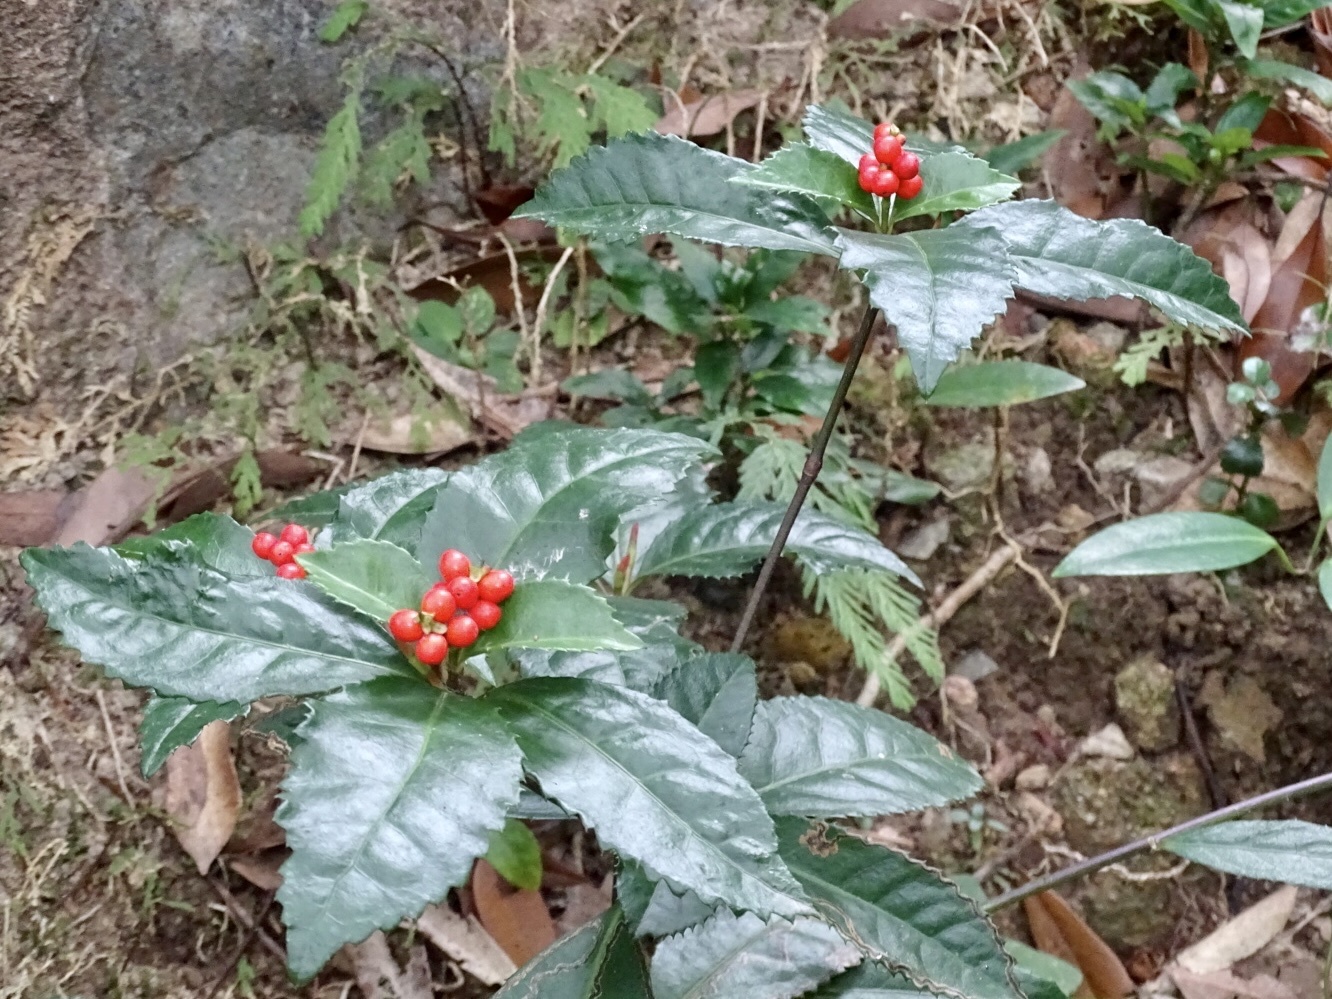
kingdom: Plantae
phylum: Tracheophyta
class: Magnoliopsida
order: Chloranthales
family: Chloranthaceae
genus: Sarcandra
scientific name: Sarcandra glabra
